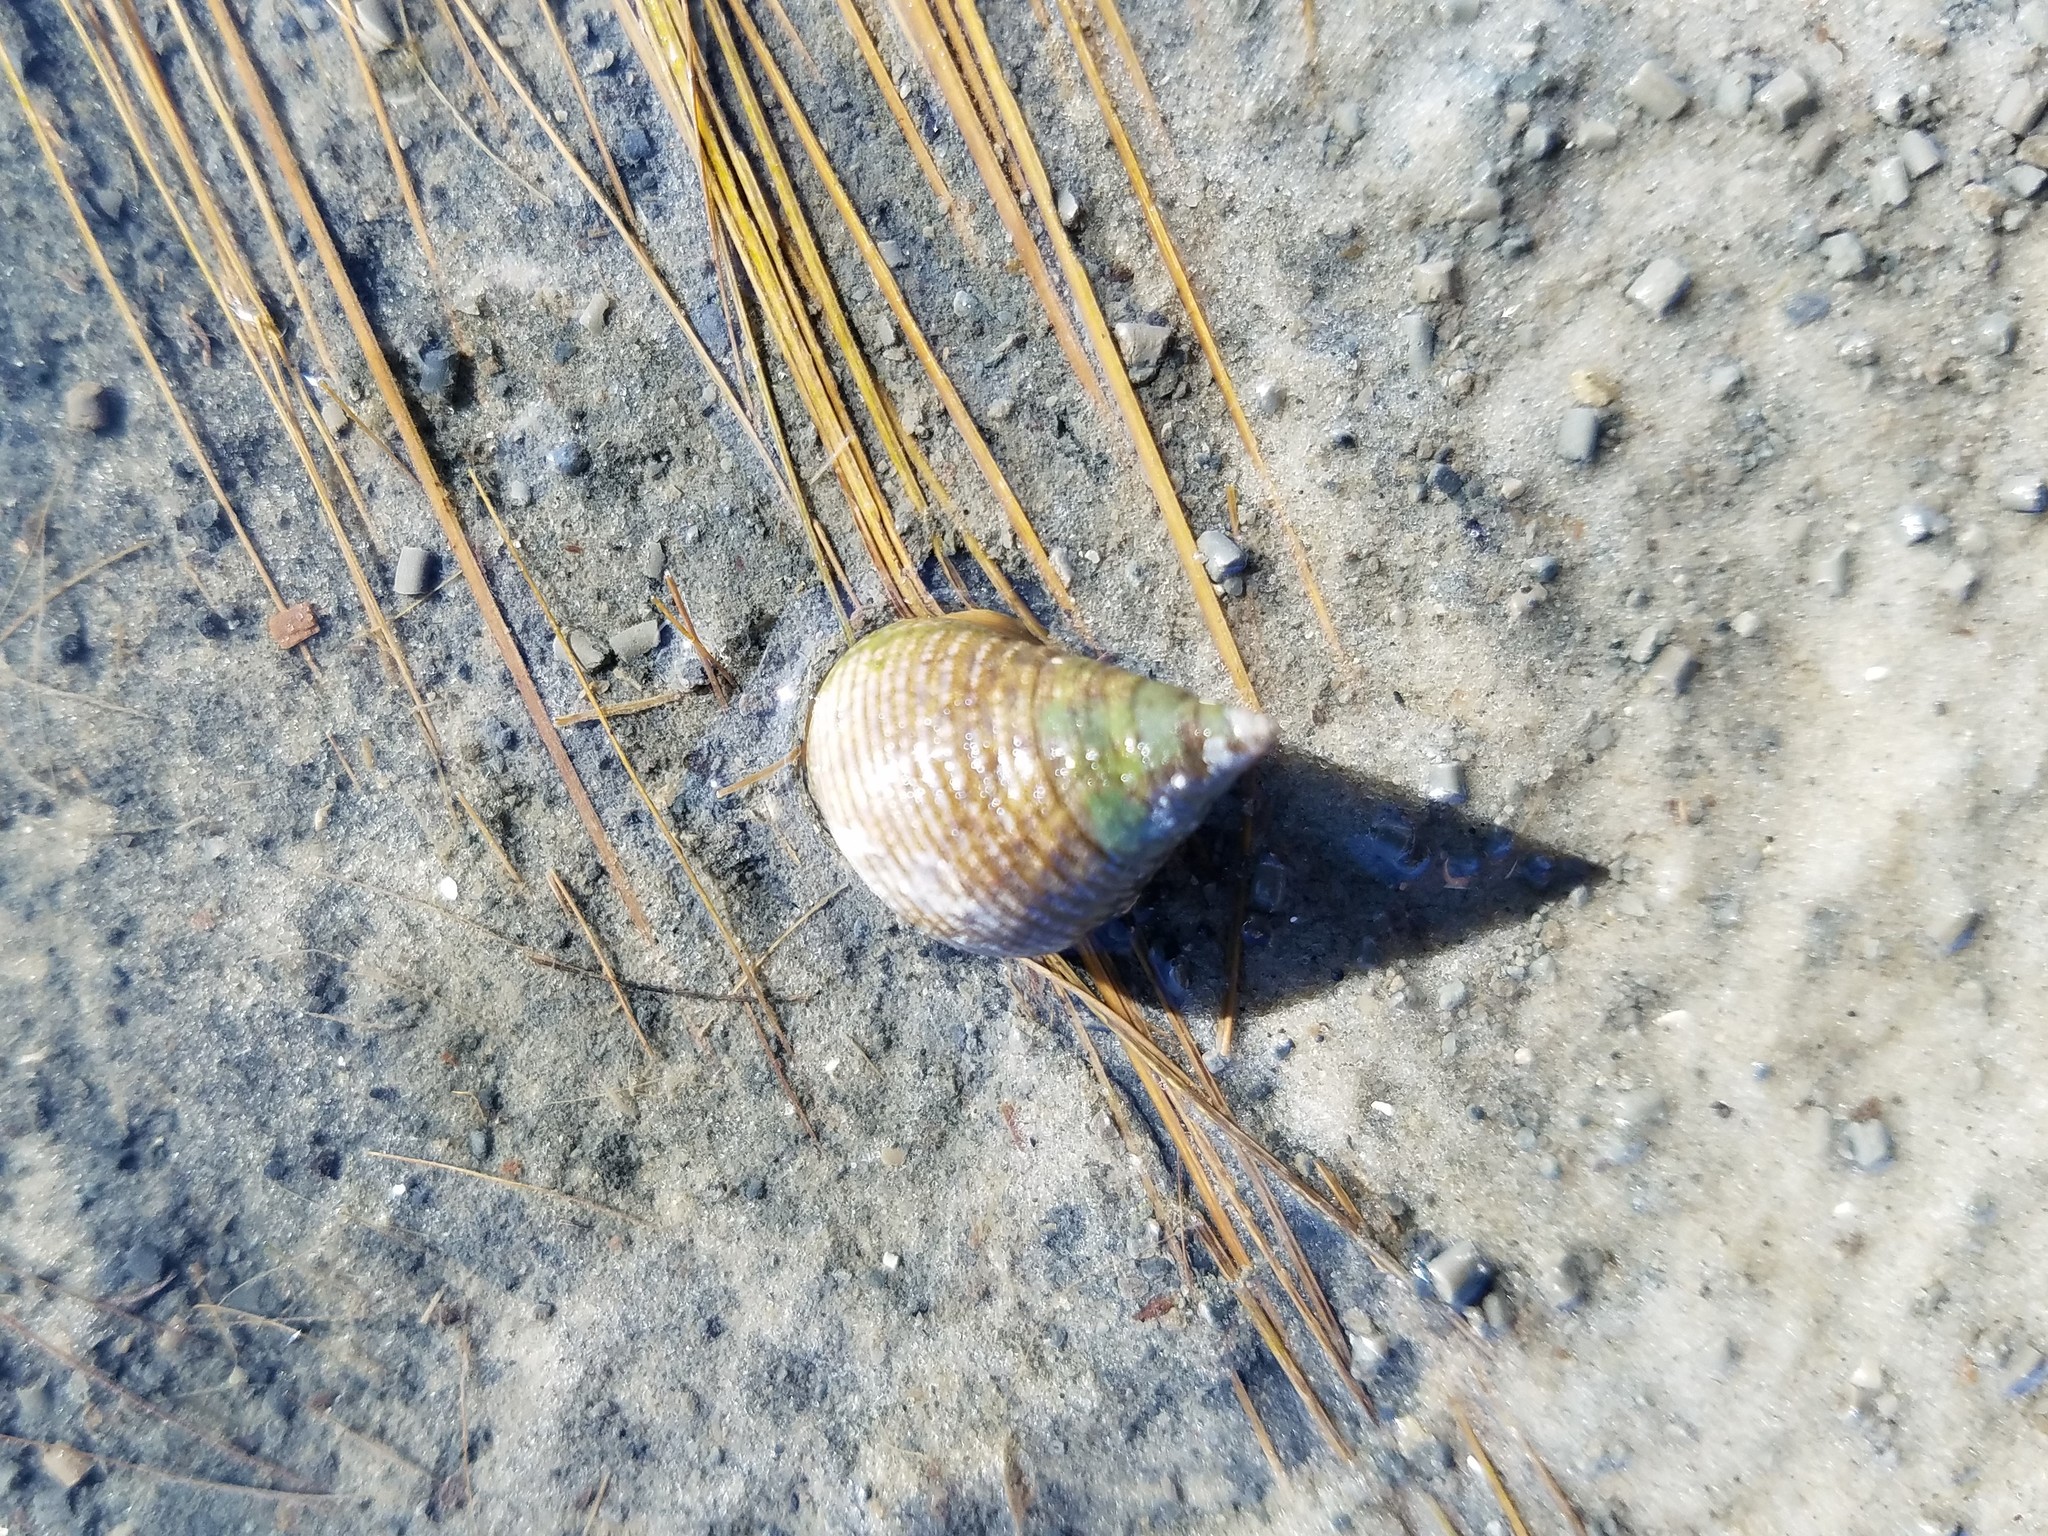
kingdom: Animalia
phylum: Mollusca
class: Gastropoda
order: Littorinimorpha
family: Littorinidae
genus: Littoraria
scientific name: Littoraria irrorata
